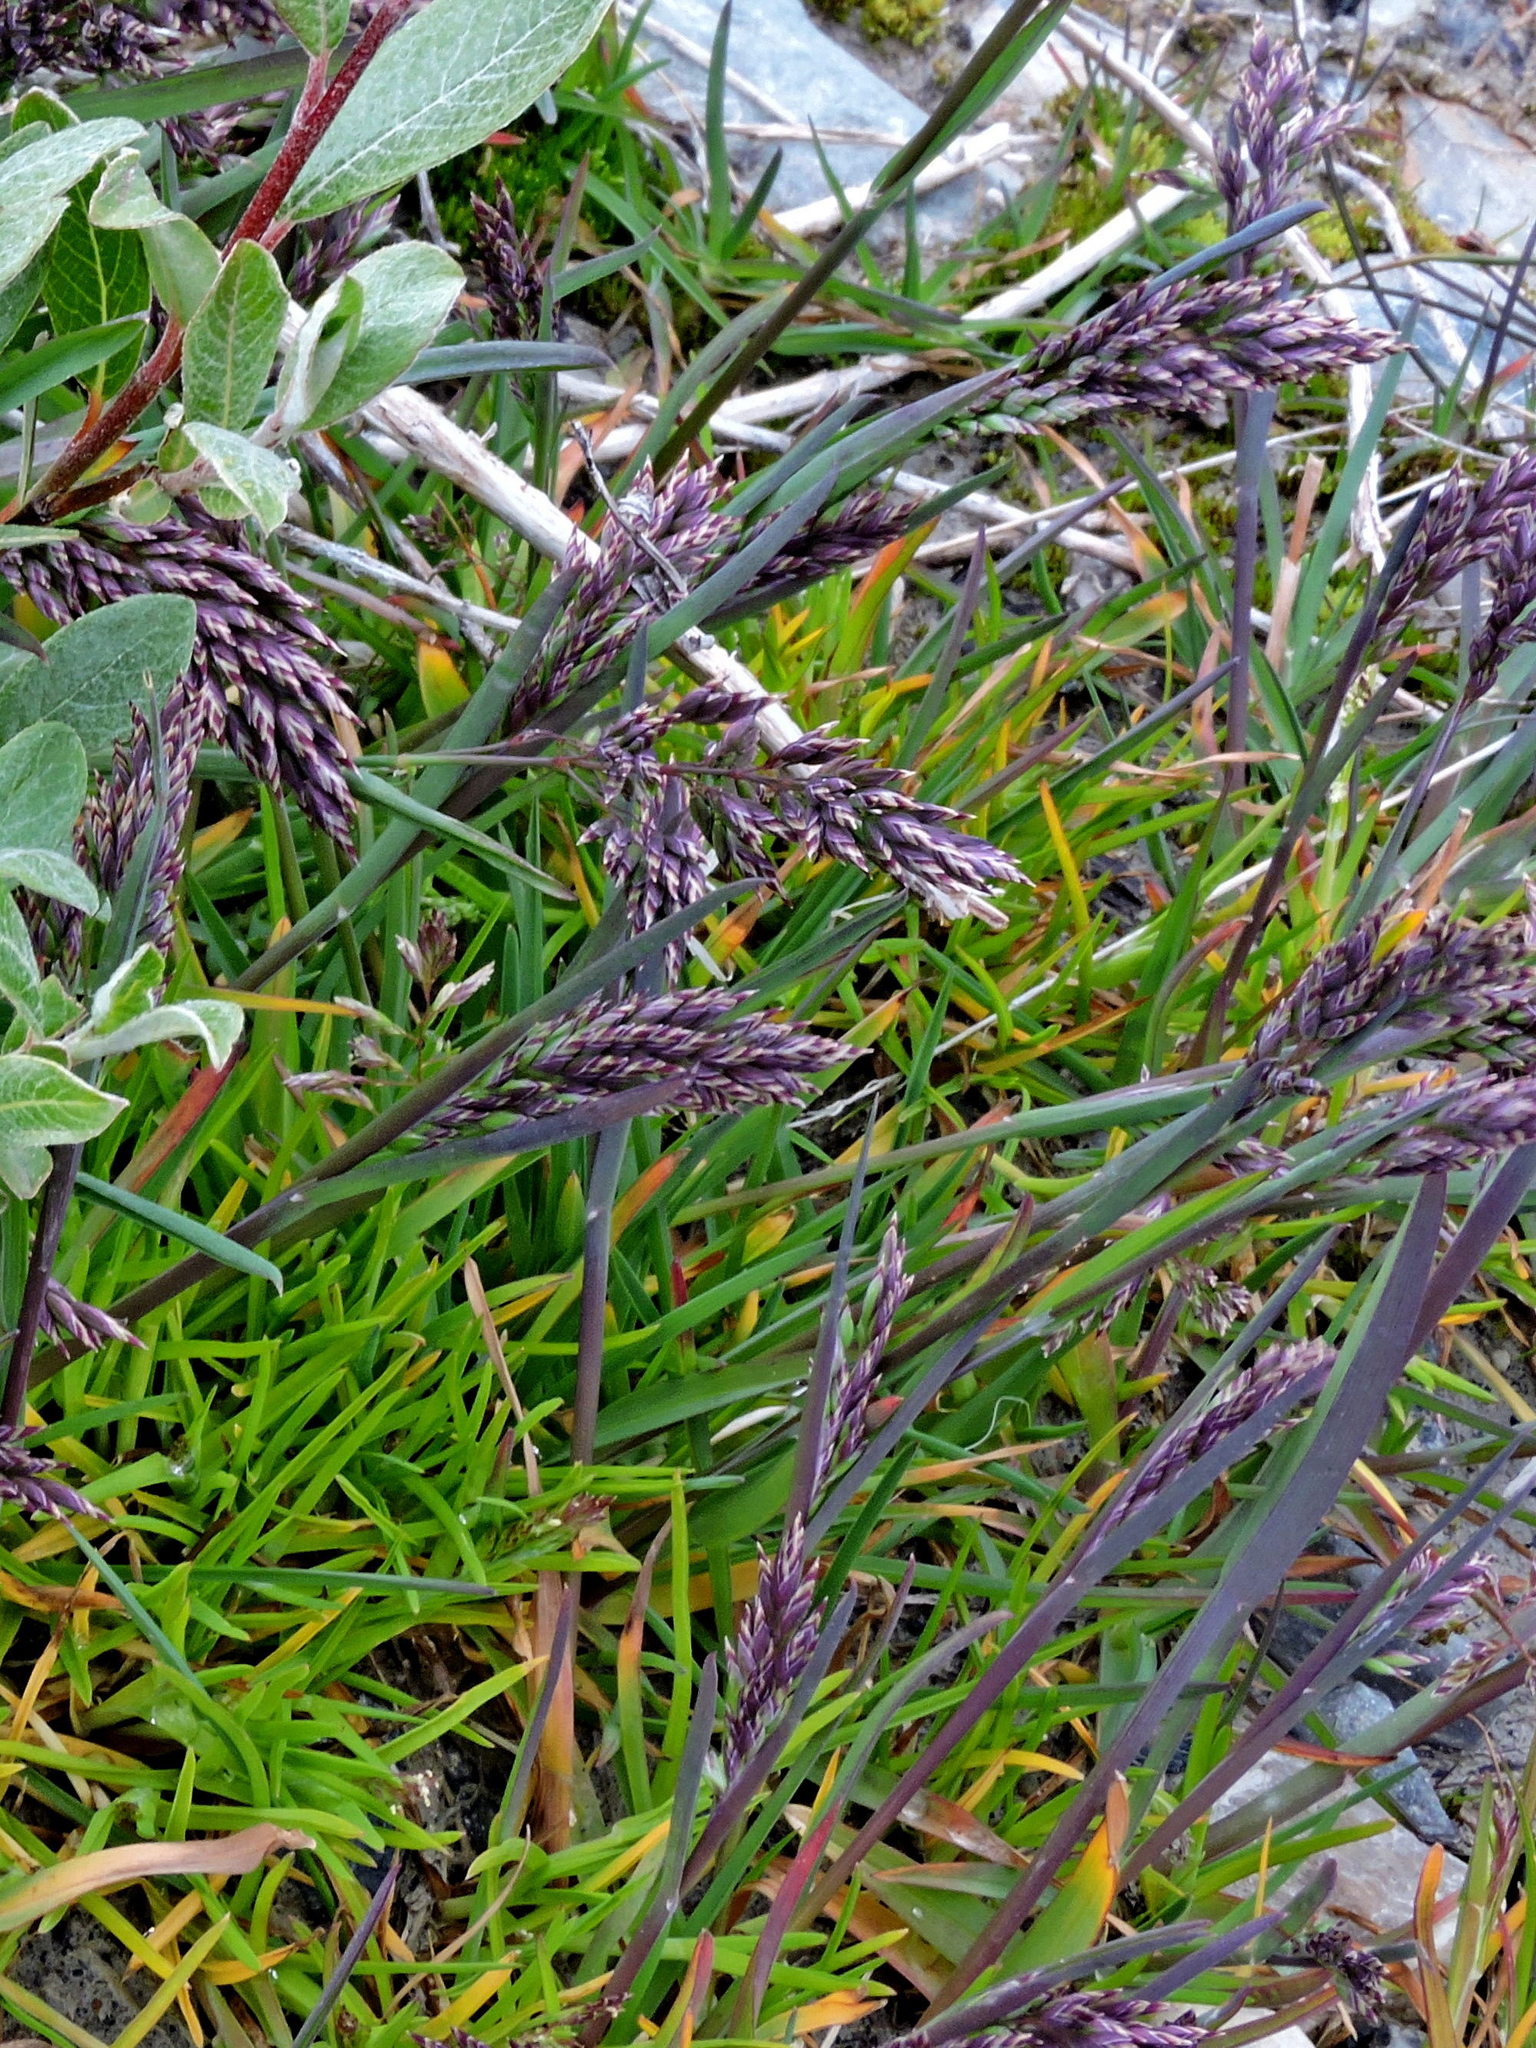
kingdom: Plantae
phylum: Tracheophyta
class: Liliopsida
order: Poales
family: Poaceae
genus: Poa
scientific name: Poa alpina
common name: Alpine bluegrass
